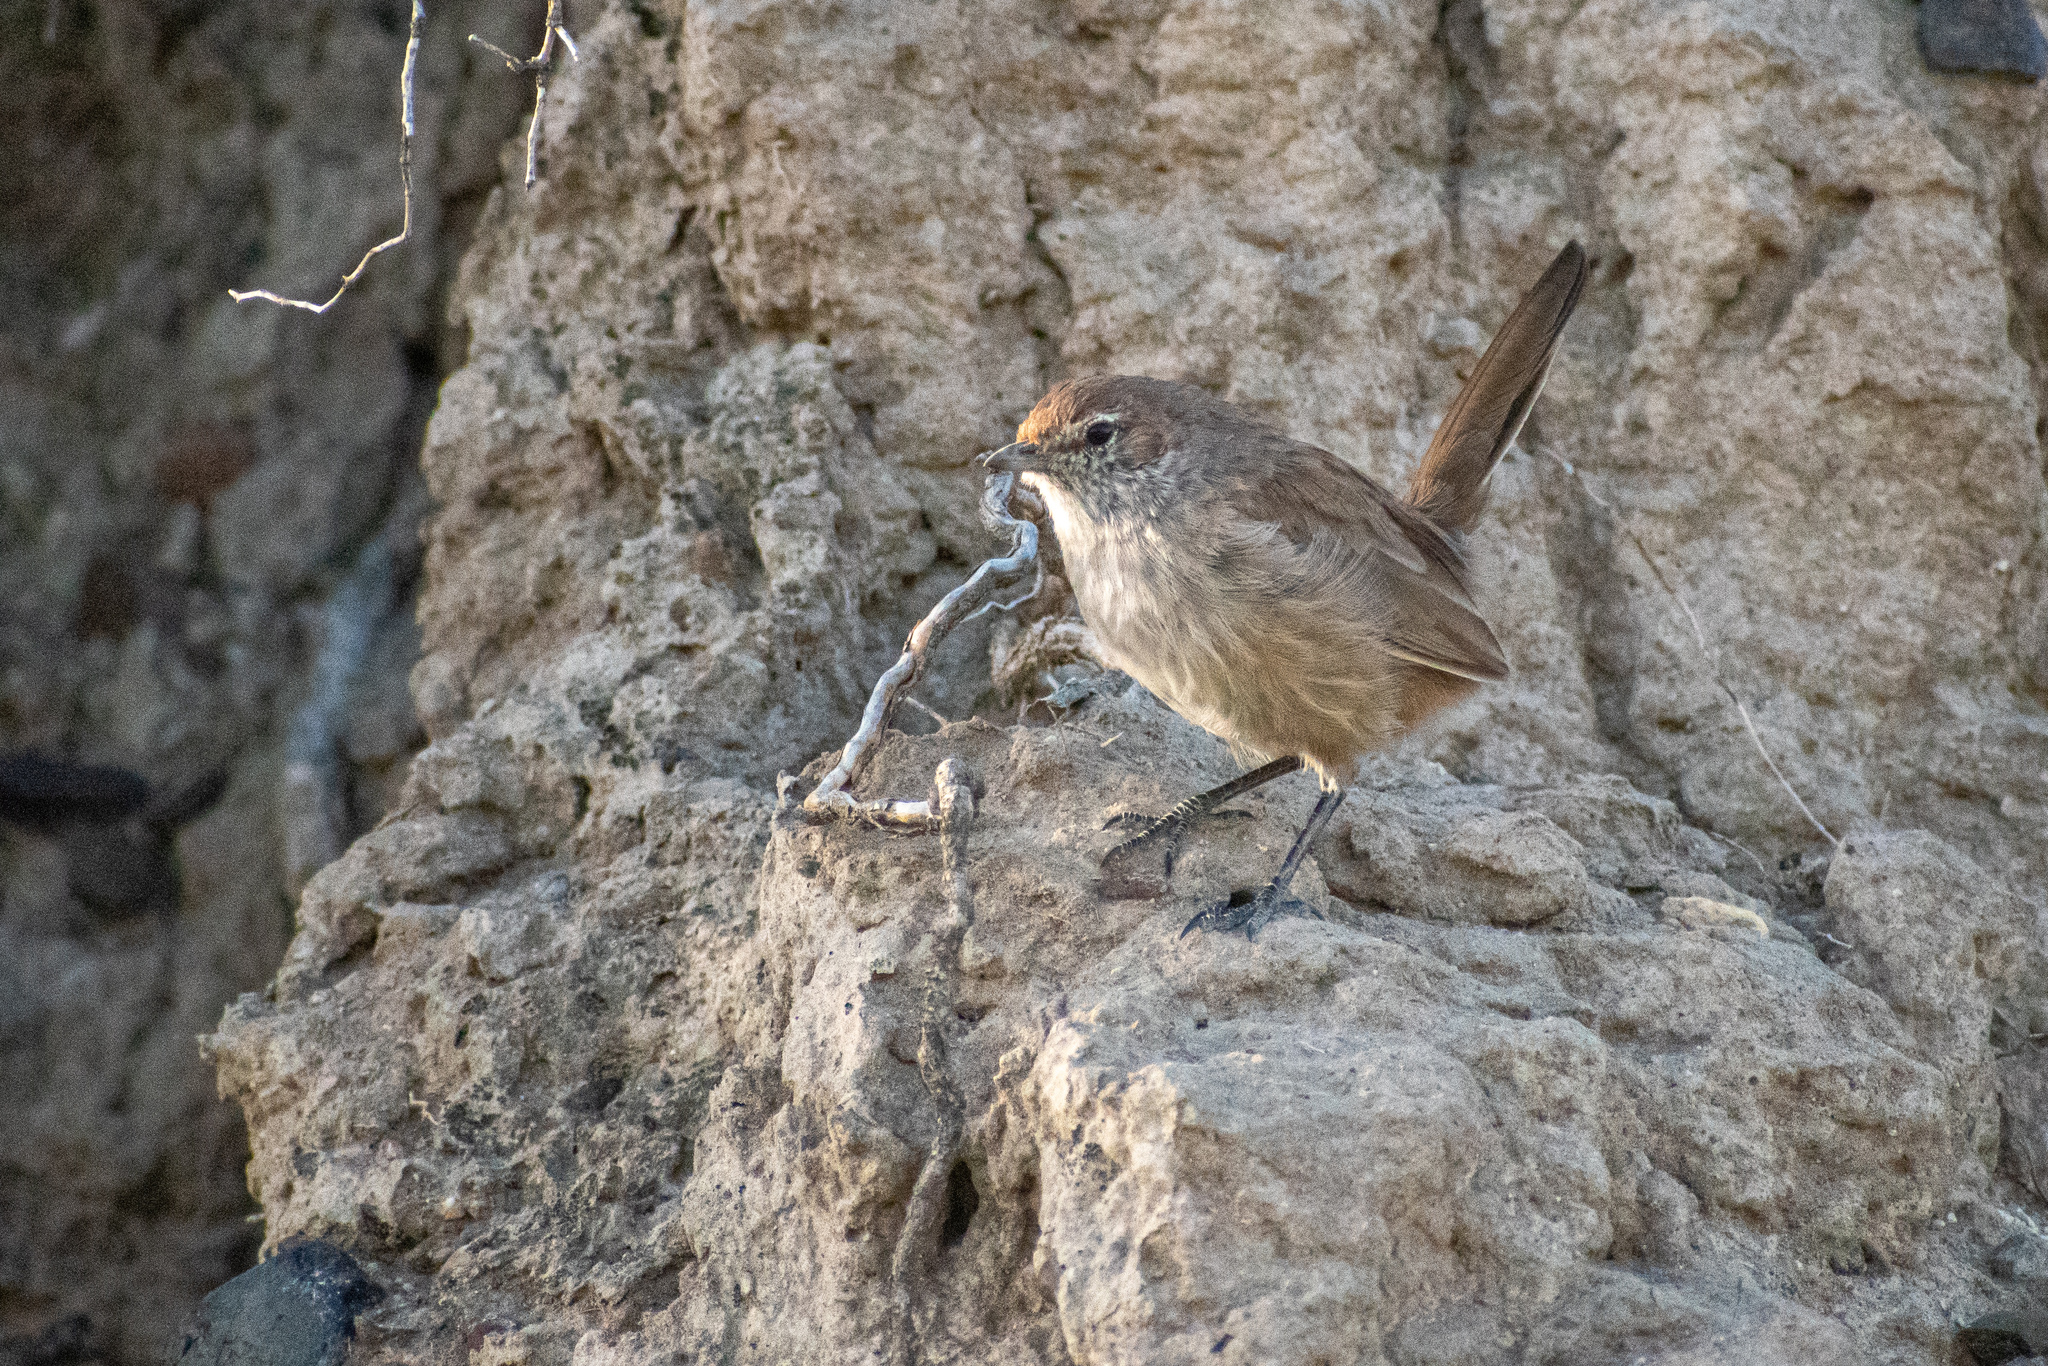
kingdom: Animalia
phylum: Chordata
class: Aves
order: Passeriformes
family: Rhinocryptidae
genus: Teledromas
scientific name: Teledromas fuscus
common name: Sandy gallito
